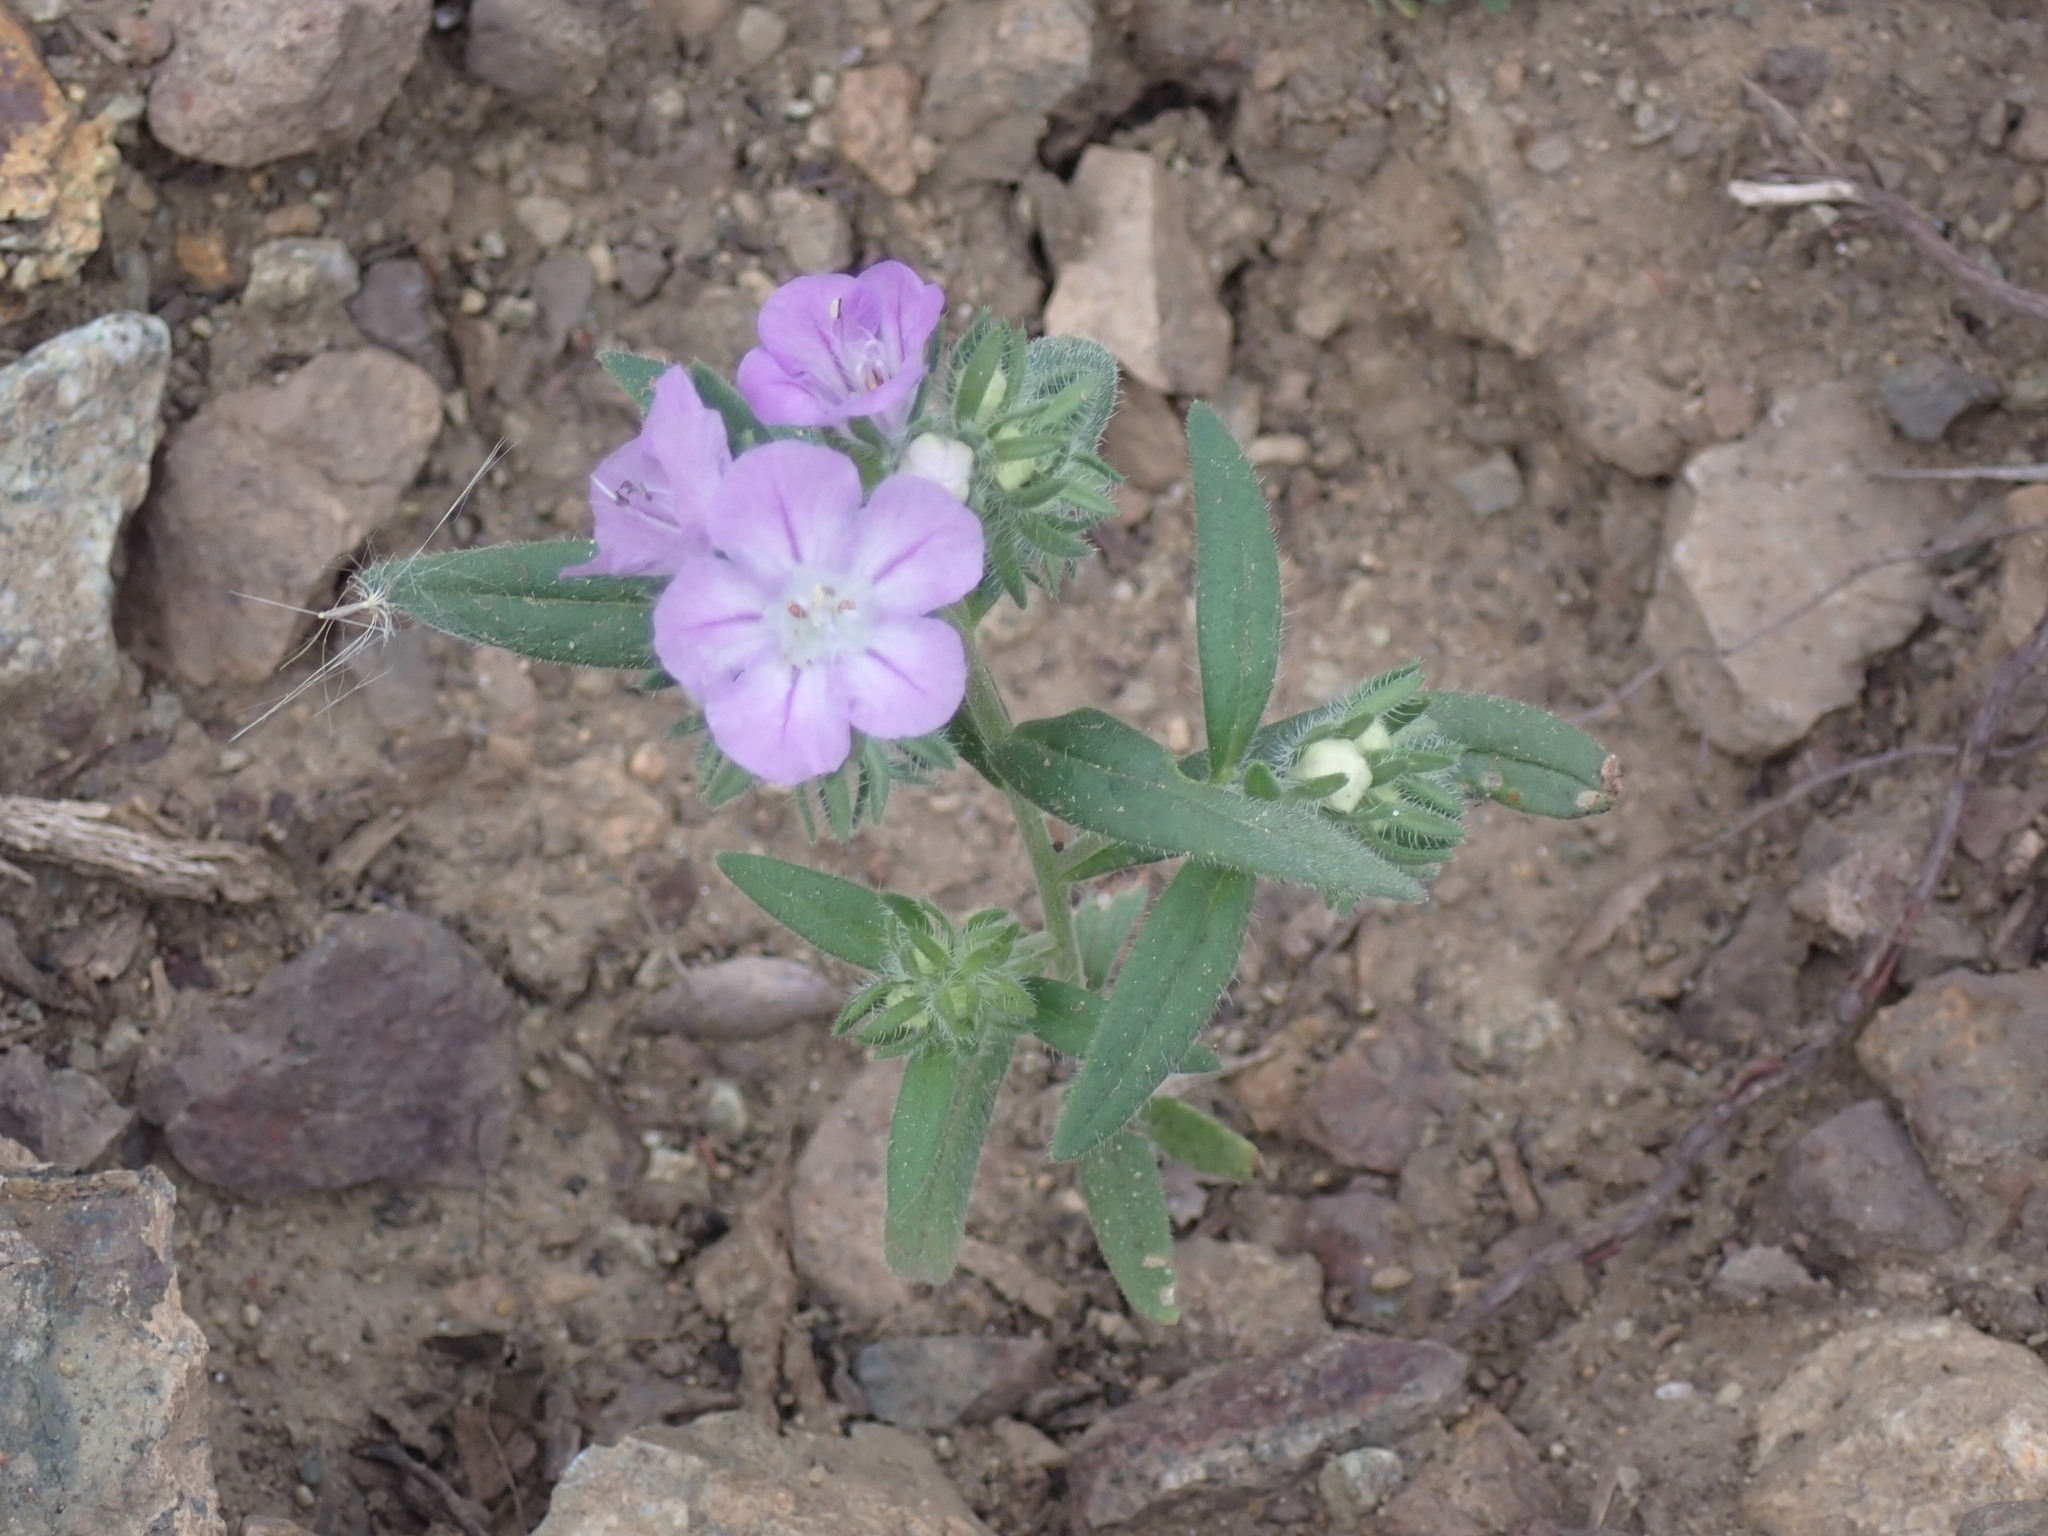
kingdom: Plantae
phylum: Tracheophyta
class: Magnoliopsida
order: Boraginales
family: Hydrophyllaceae
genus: Phacelia
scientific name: Phacelia linearis
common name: Linear-leaved phacelia
